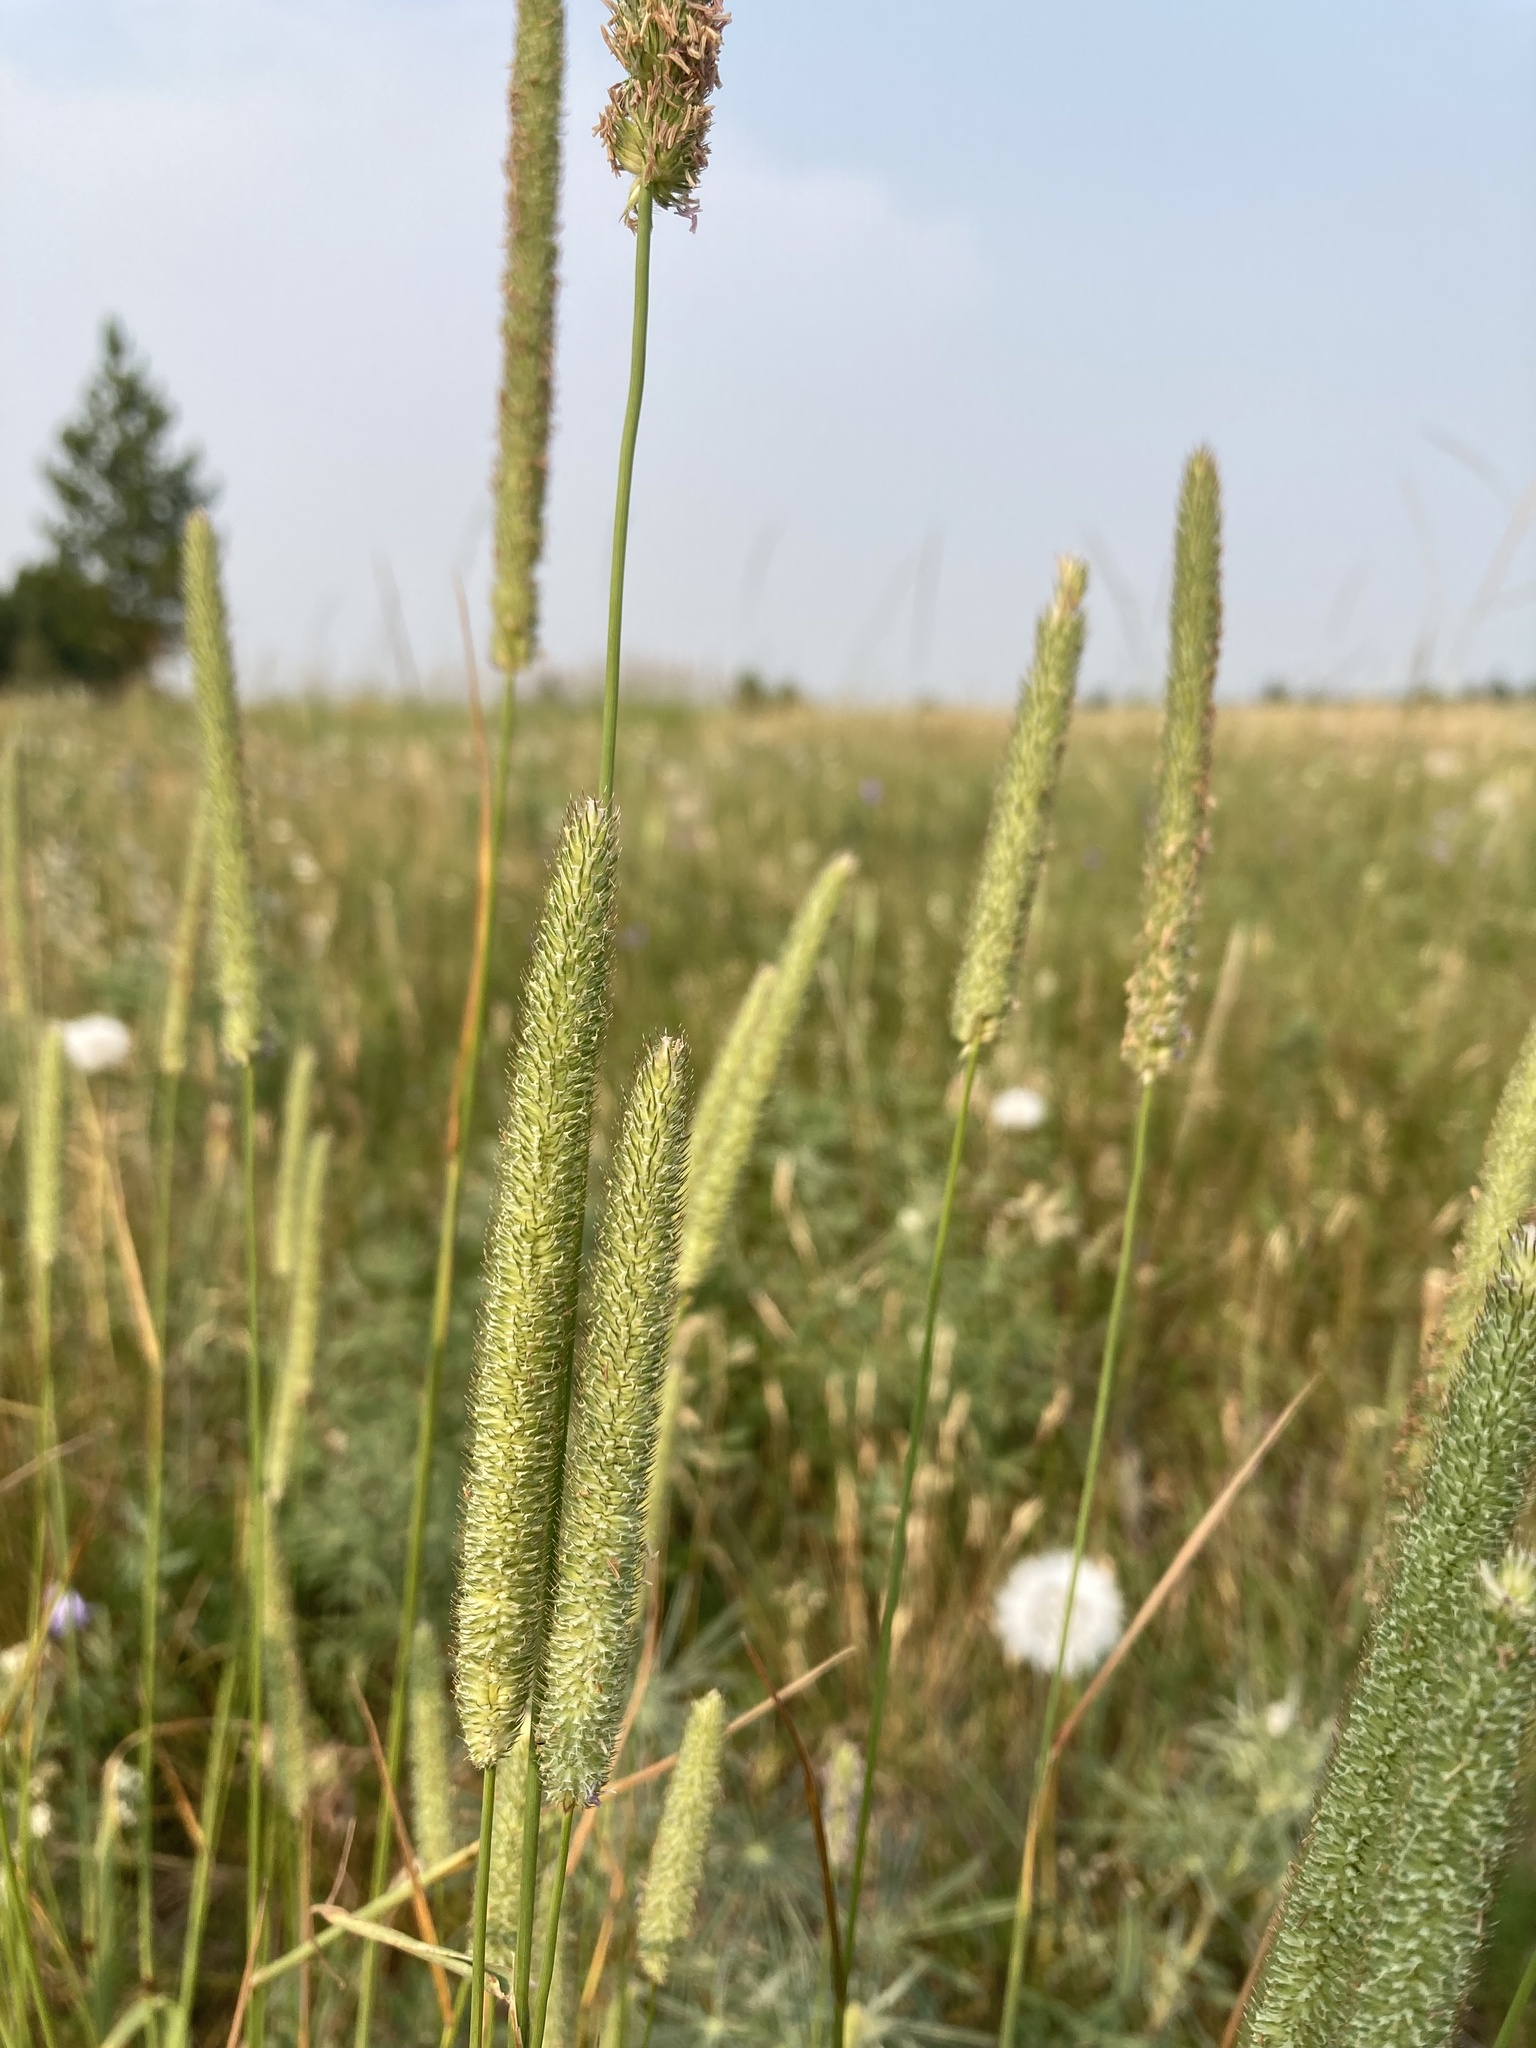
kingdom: Plantae
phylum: Tracheophyta
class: Liliopsida
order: Poales
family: Poaceae
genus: Phleum
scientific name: Phleum pratense
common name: Timothy grass
